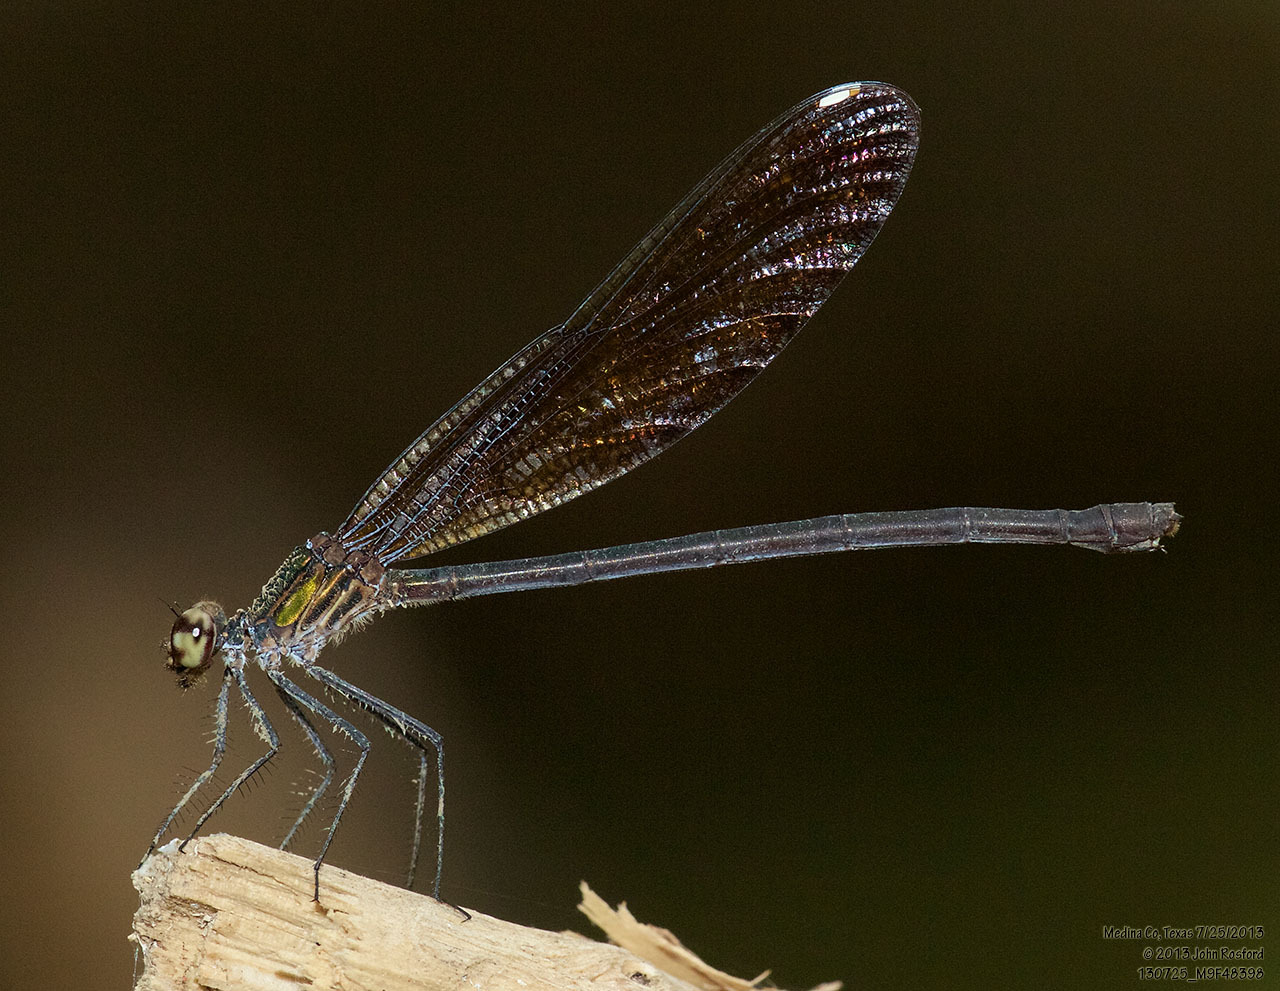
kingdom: Animalia
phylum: Arthropoda
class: Insecta
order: Odonata
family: Calopterygidae
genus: Hetaerina
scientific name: Hetaerina titia
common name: Smoky rubyspot
